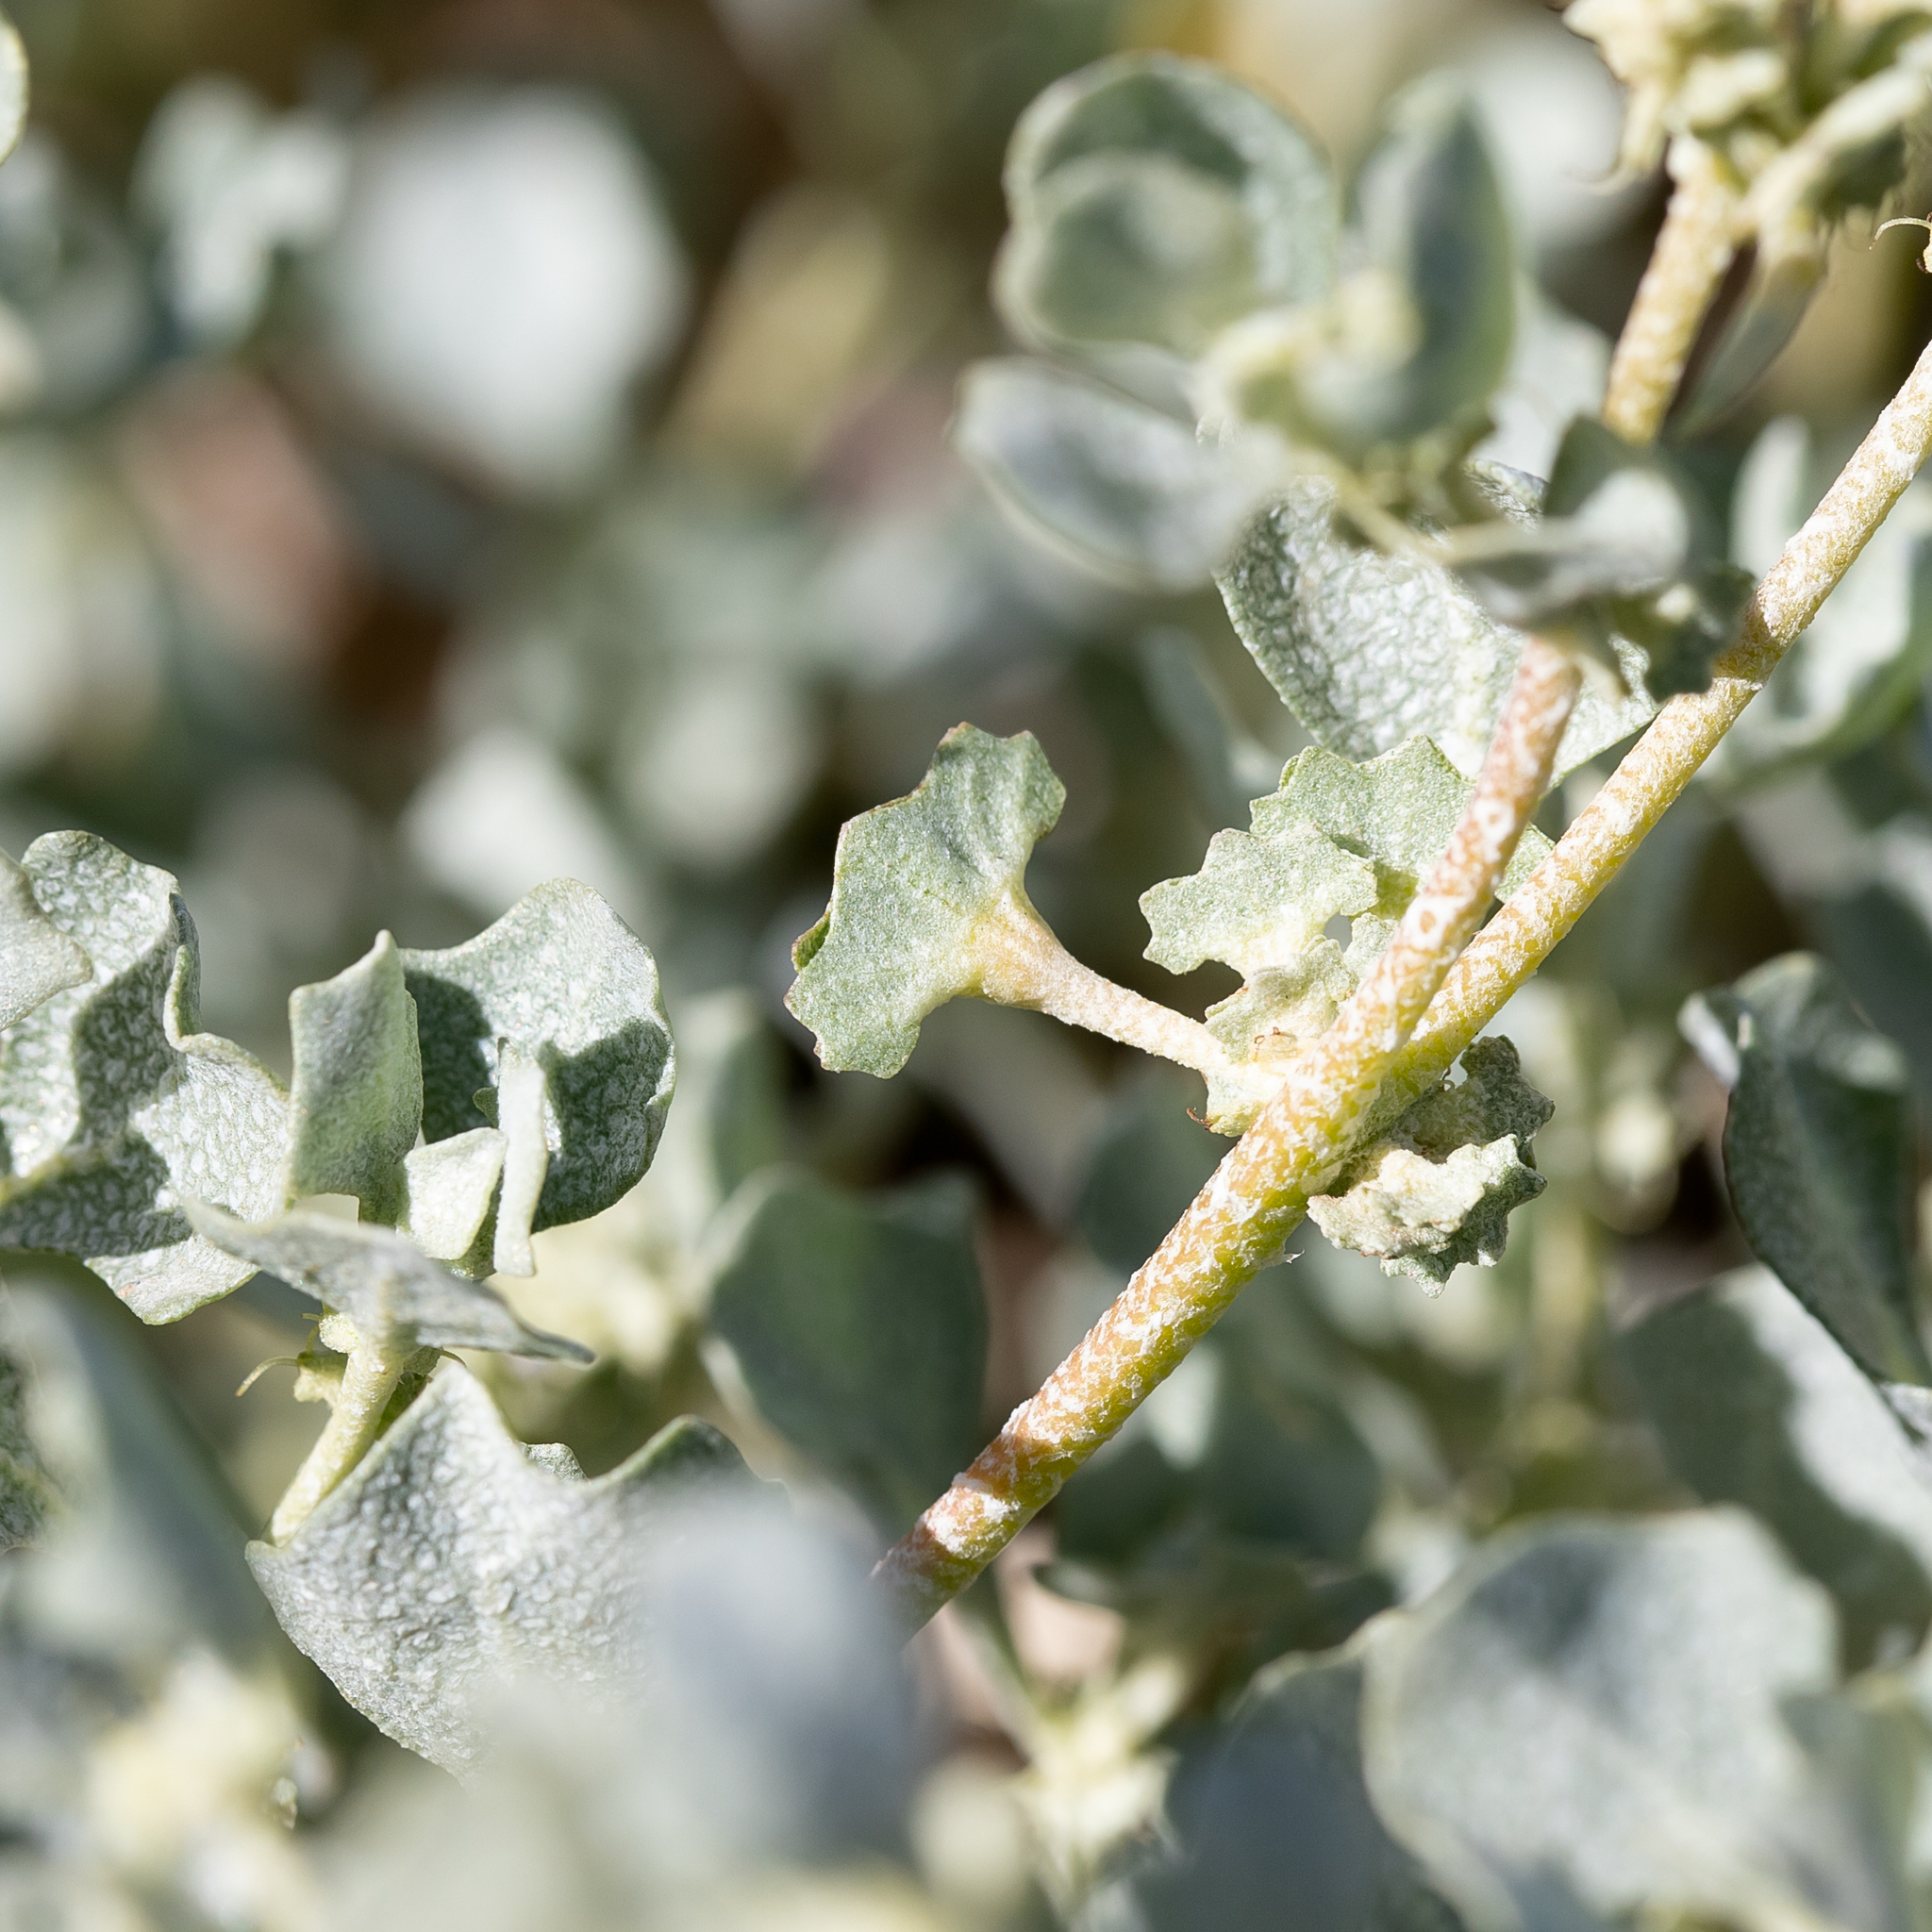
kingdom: Plantae
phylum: Tracheophyta
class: Magnoliopsida
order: Caryophyllales
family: Amaranthaceae
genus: Atriplex
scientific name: Atriplex angulata
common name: Fan saltbush
